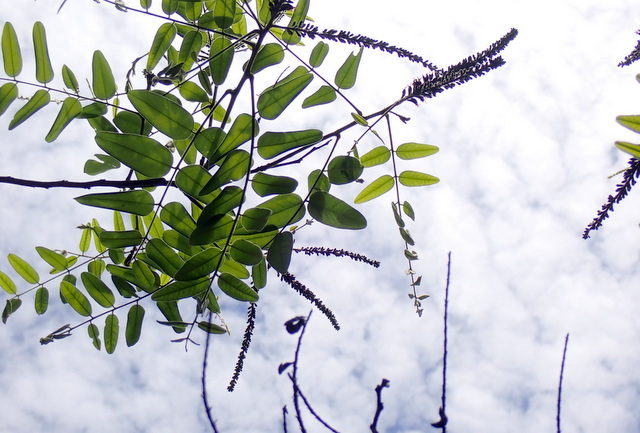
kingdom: Plantae
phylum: Tracheophyta
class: Magnoliopsida
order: Fabales
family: Fabaceae
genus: Amorpha
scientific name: Amorpha fruticosa
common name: False indigo
